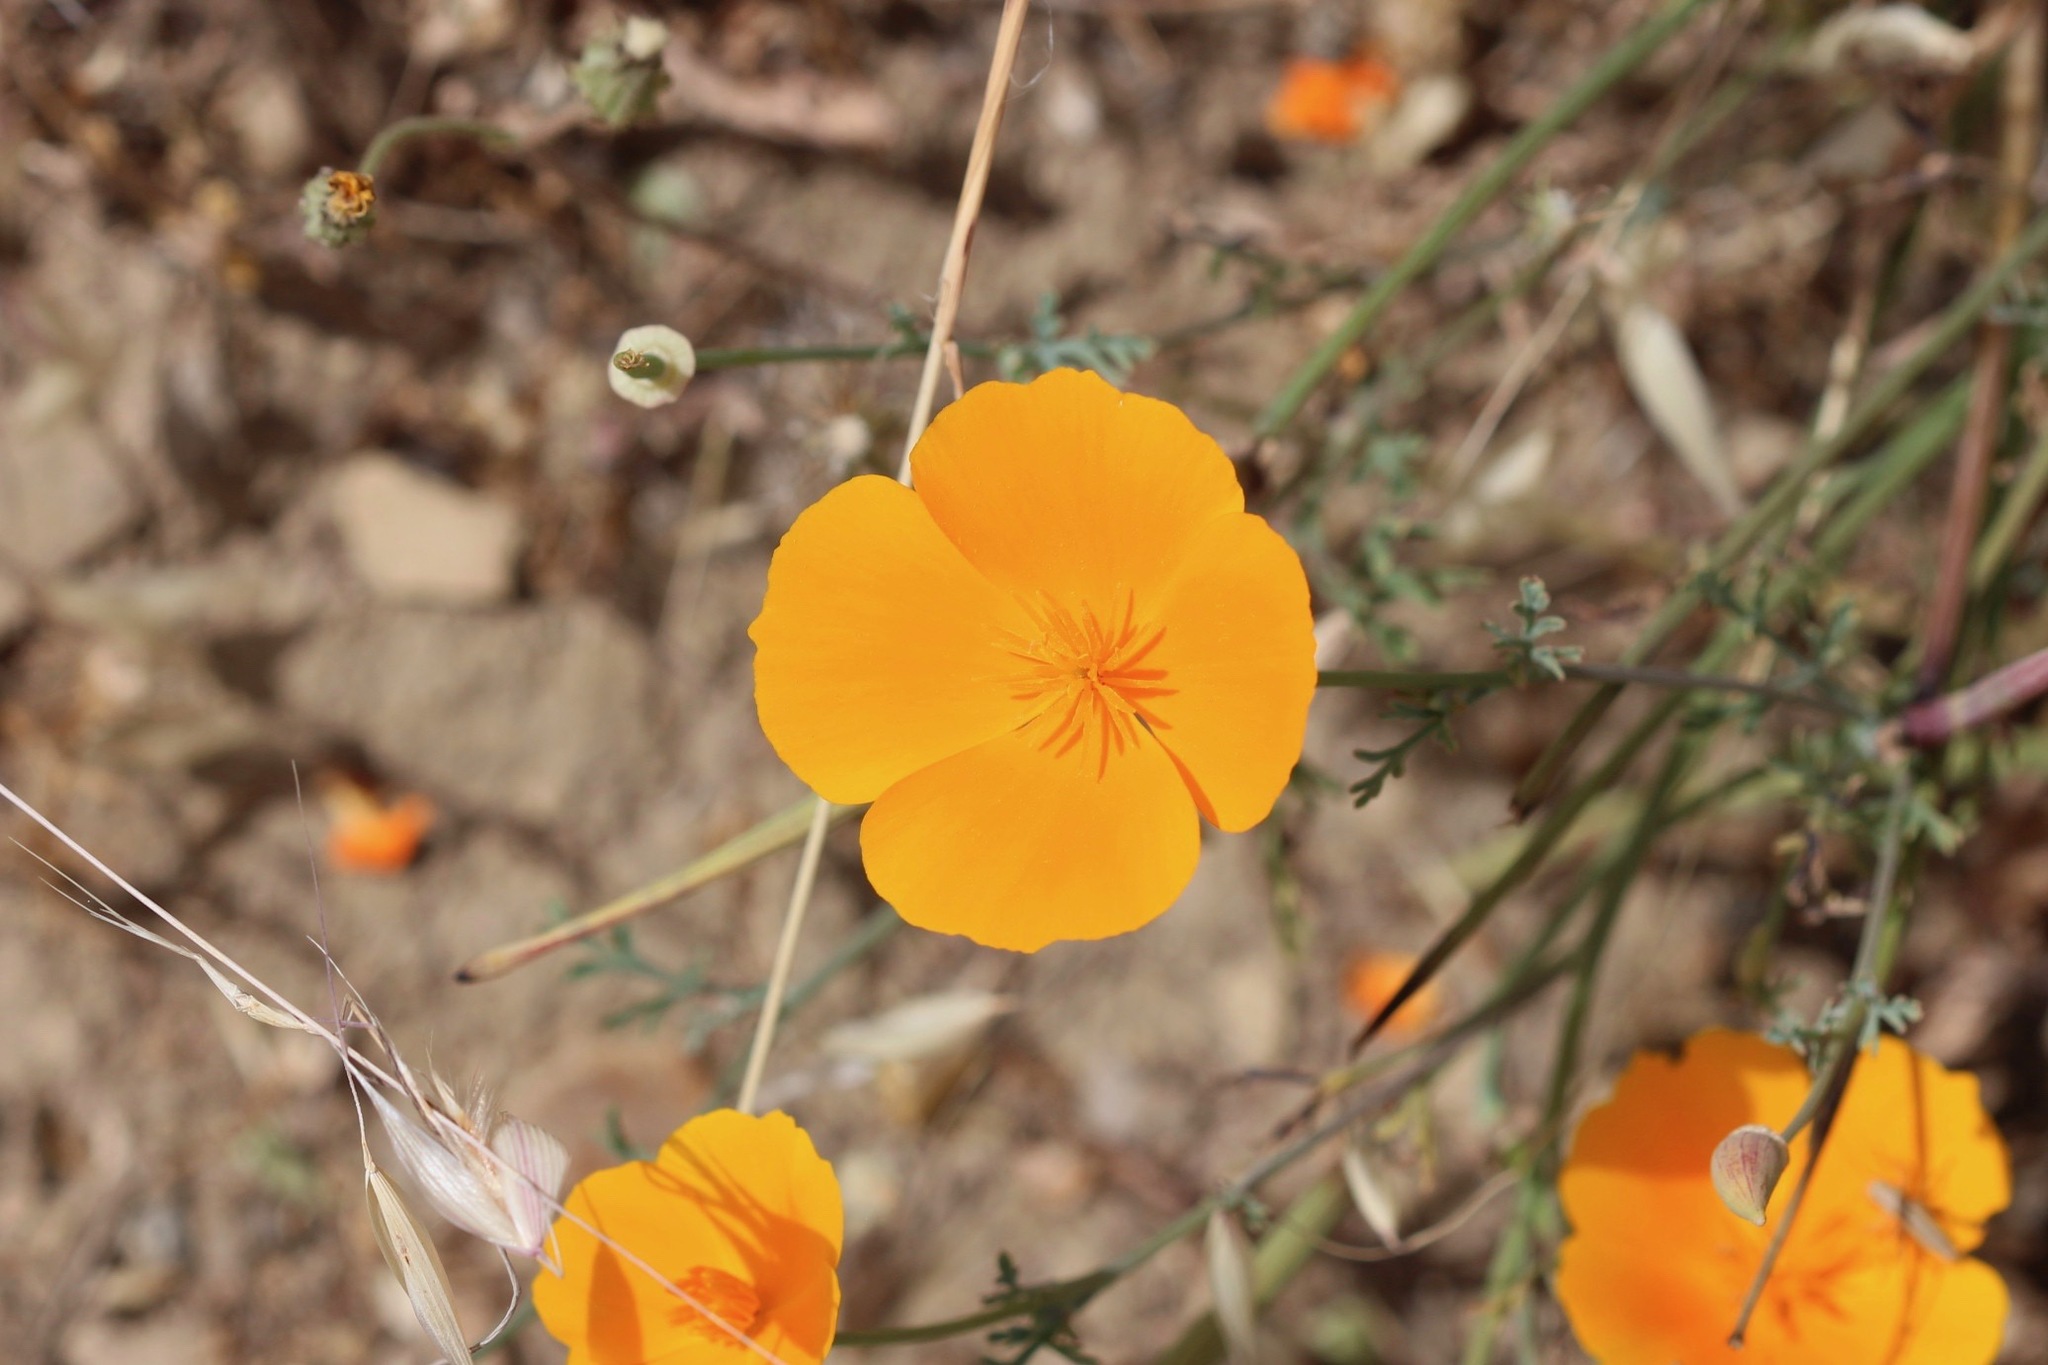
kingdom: Plantae
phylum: Tracheophyta
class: Magnoliopsida
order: Ranunculales
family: Papaveraceae
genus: Eschscholzia
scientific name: Eschscholzia californica
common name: California poppy
